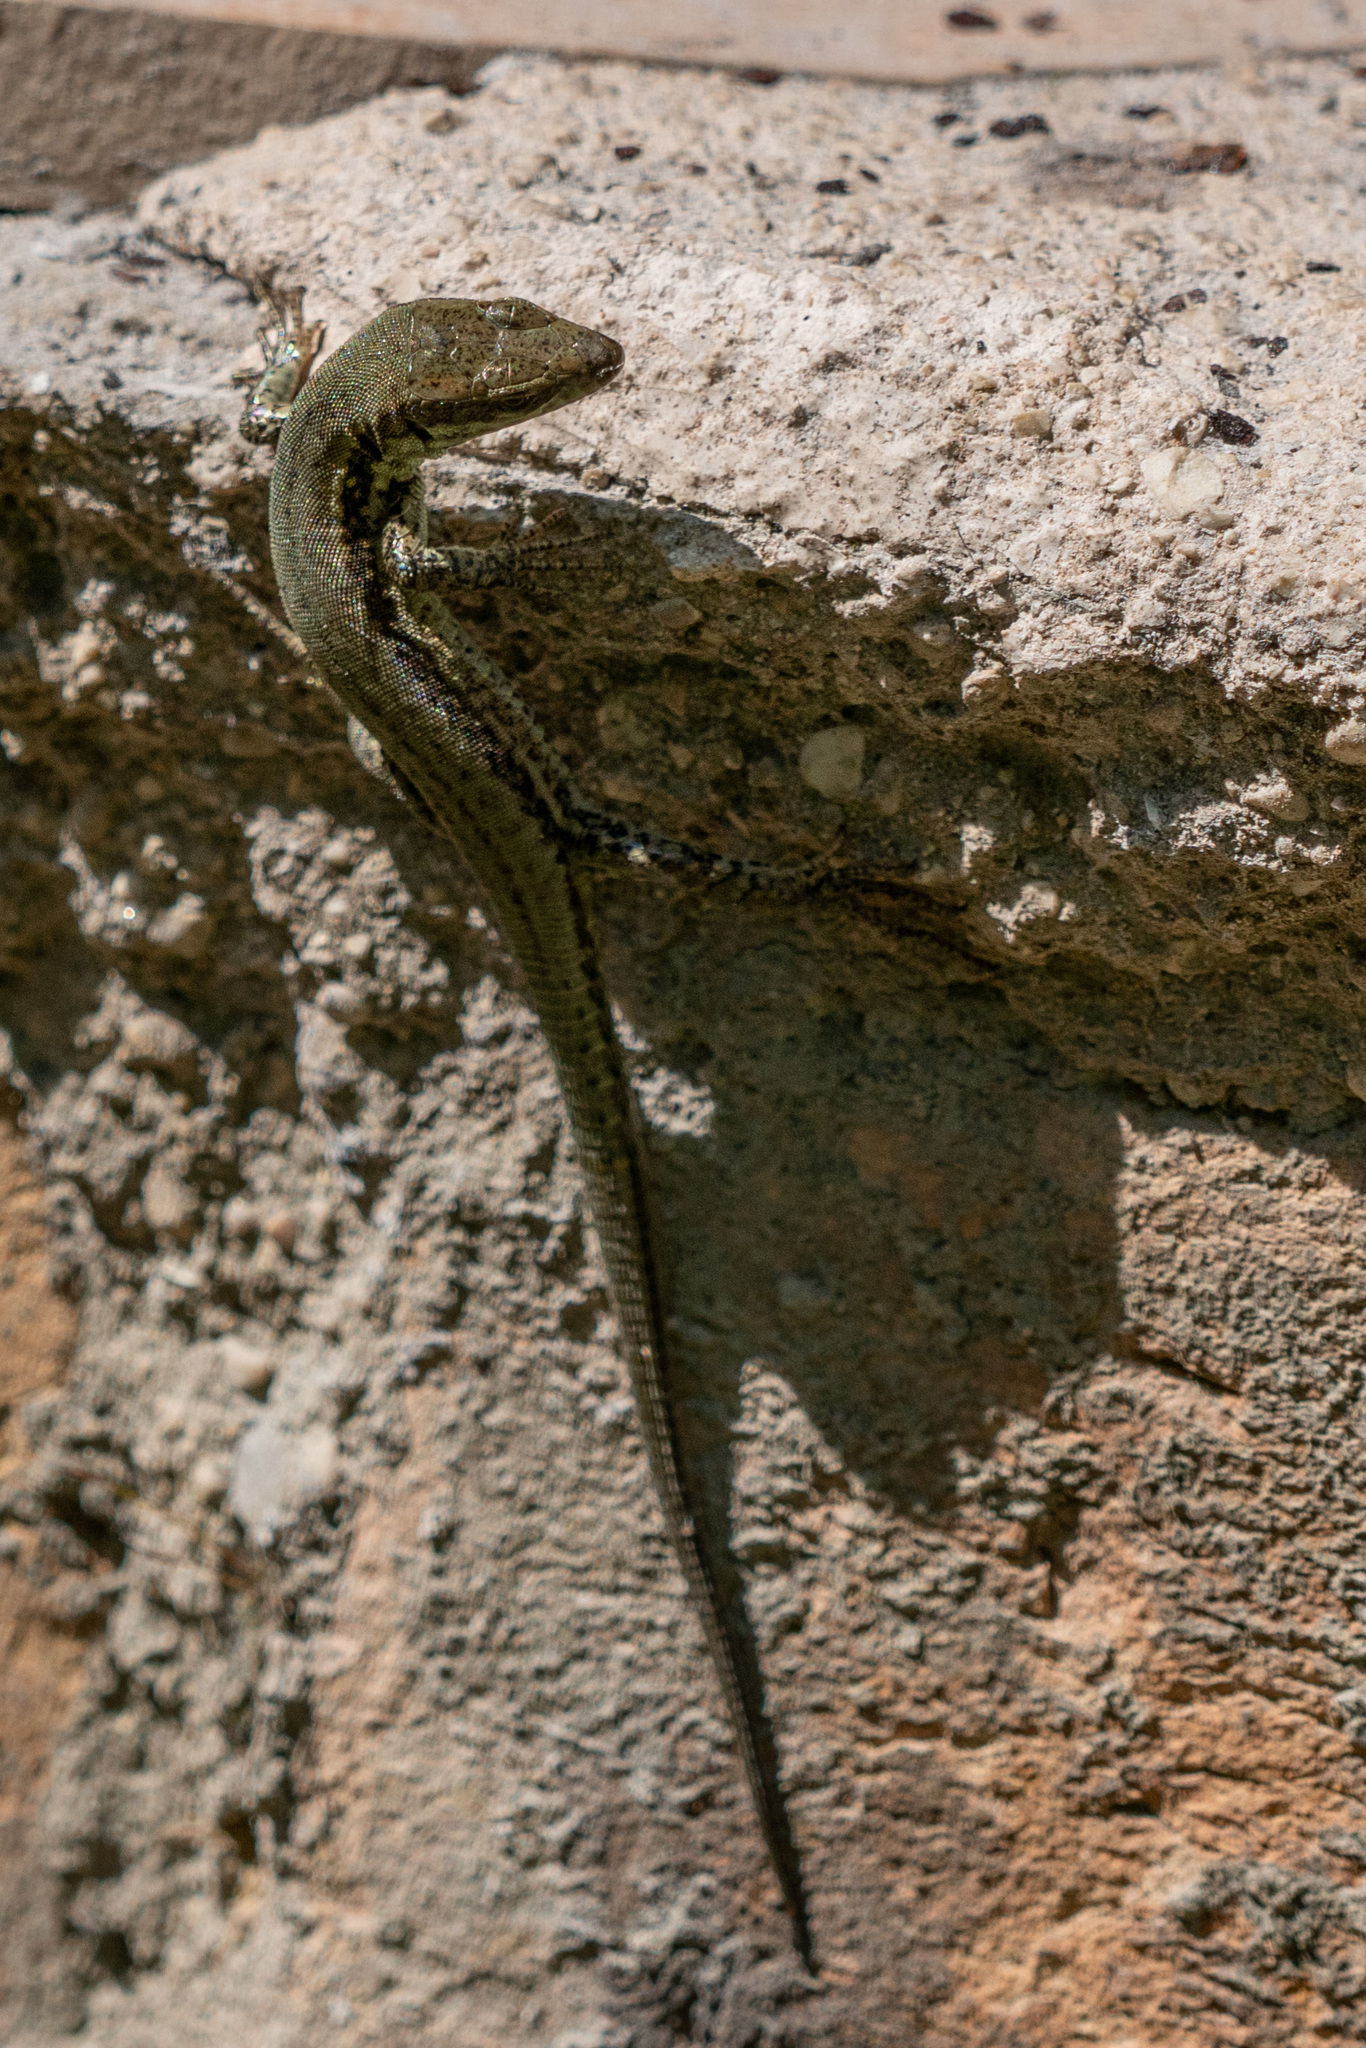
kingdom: Animalia
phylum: Chordata
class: Squamata
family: Lacertidae
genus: Podarcis
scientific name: Podarcis muralis
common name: Common wall lizard
